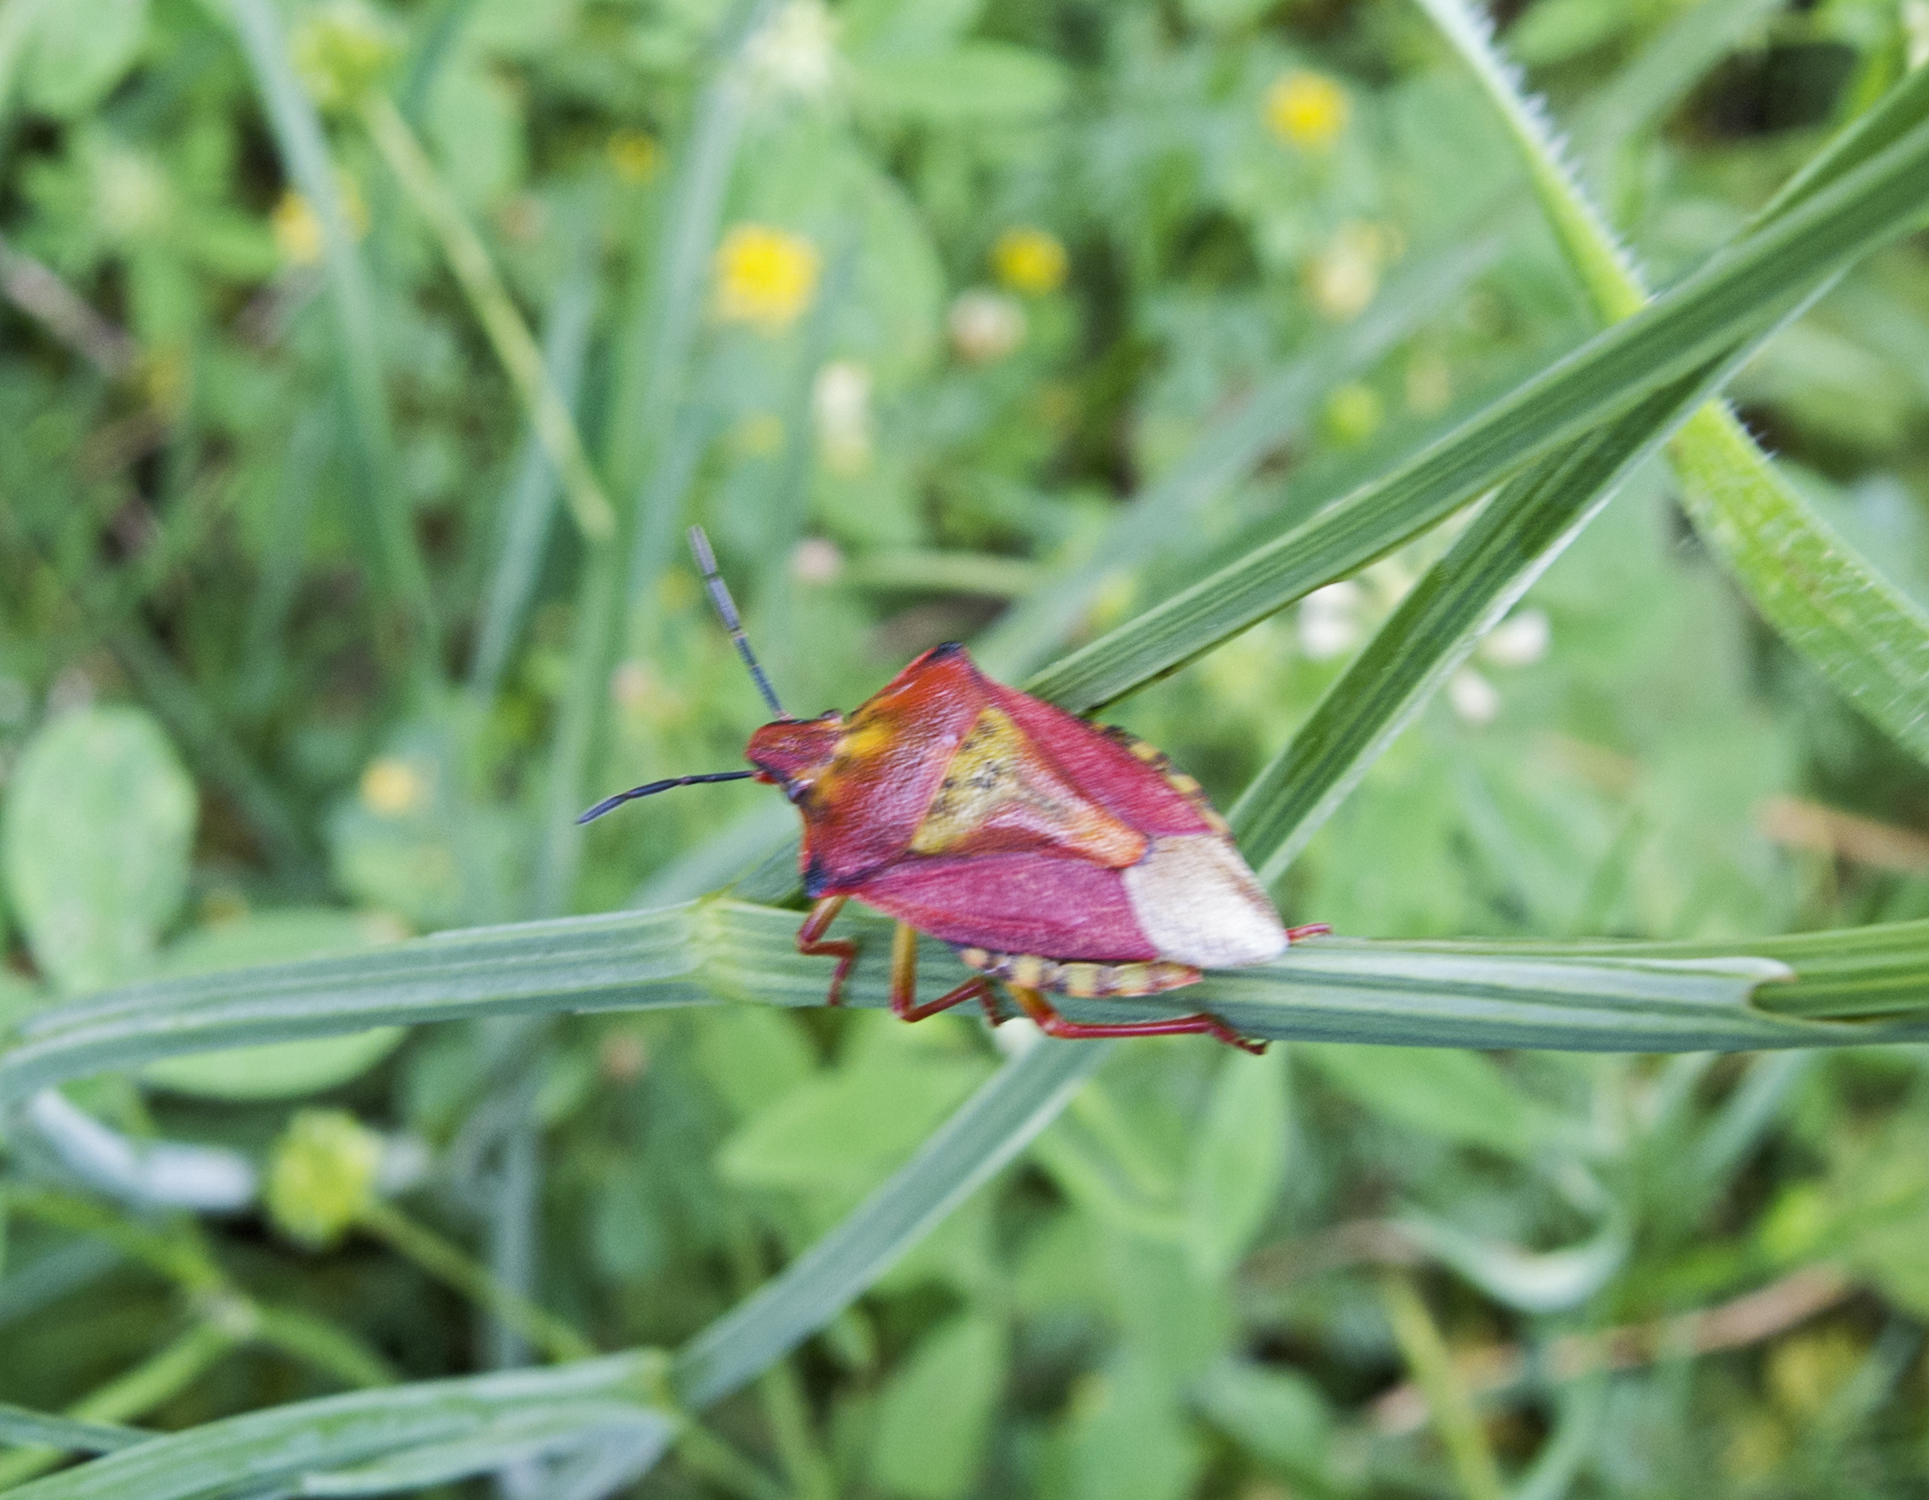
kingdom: Animalia
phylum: Arthropoda
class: Insecta
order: Hemiptera
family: Pentatomidae
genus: Carpocoris
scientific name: Carpocoris mediterraneus
